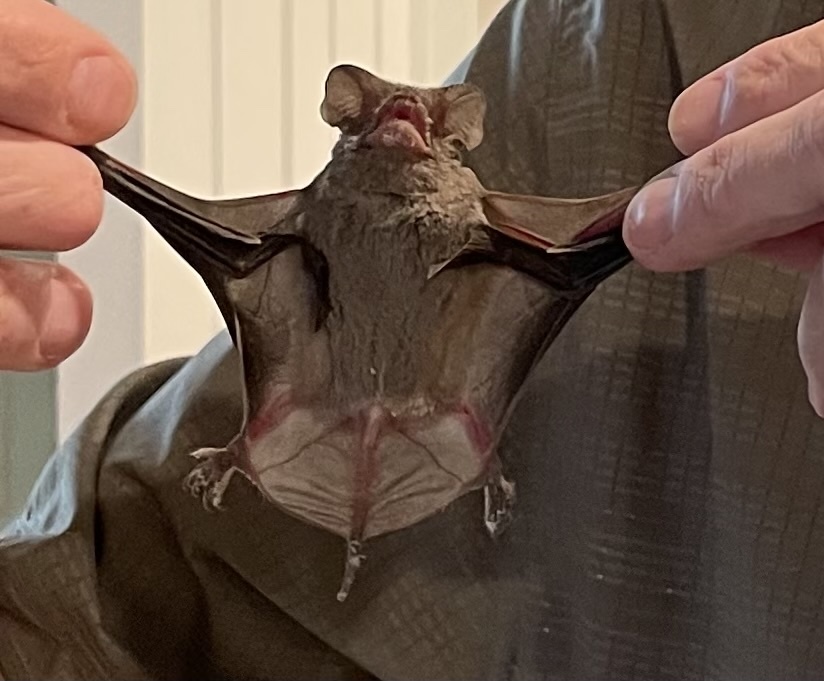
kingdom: Animalia
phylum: Chordata
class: Mammalia
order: Chiroptera
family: Molossidae
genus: Tadarida
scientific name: Tadarida brasiliensis
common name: Mexican free-tailed bat
